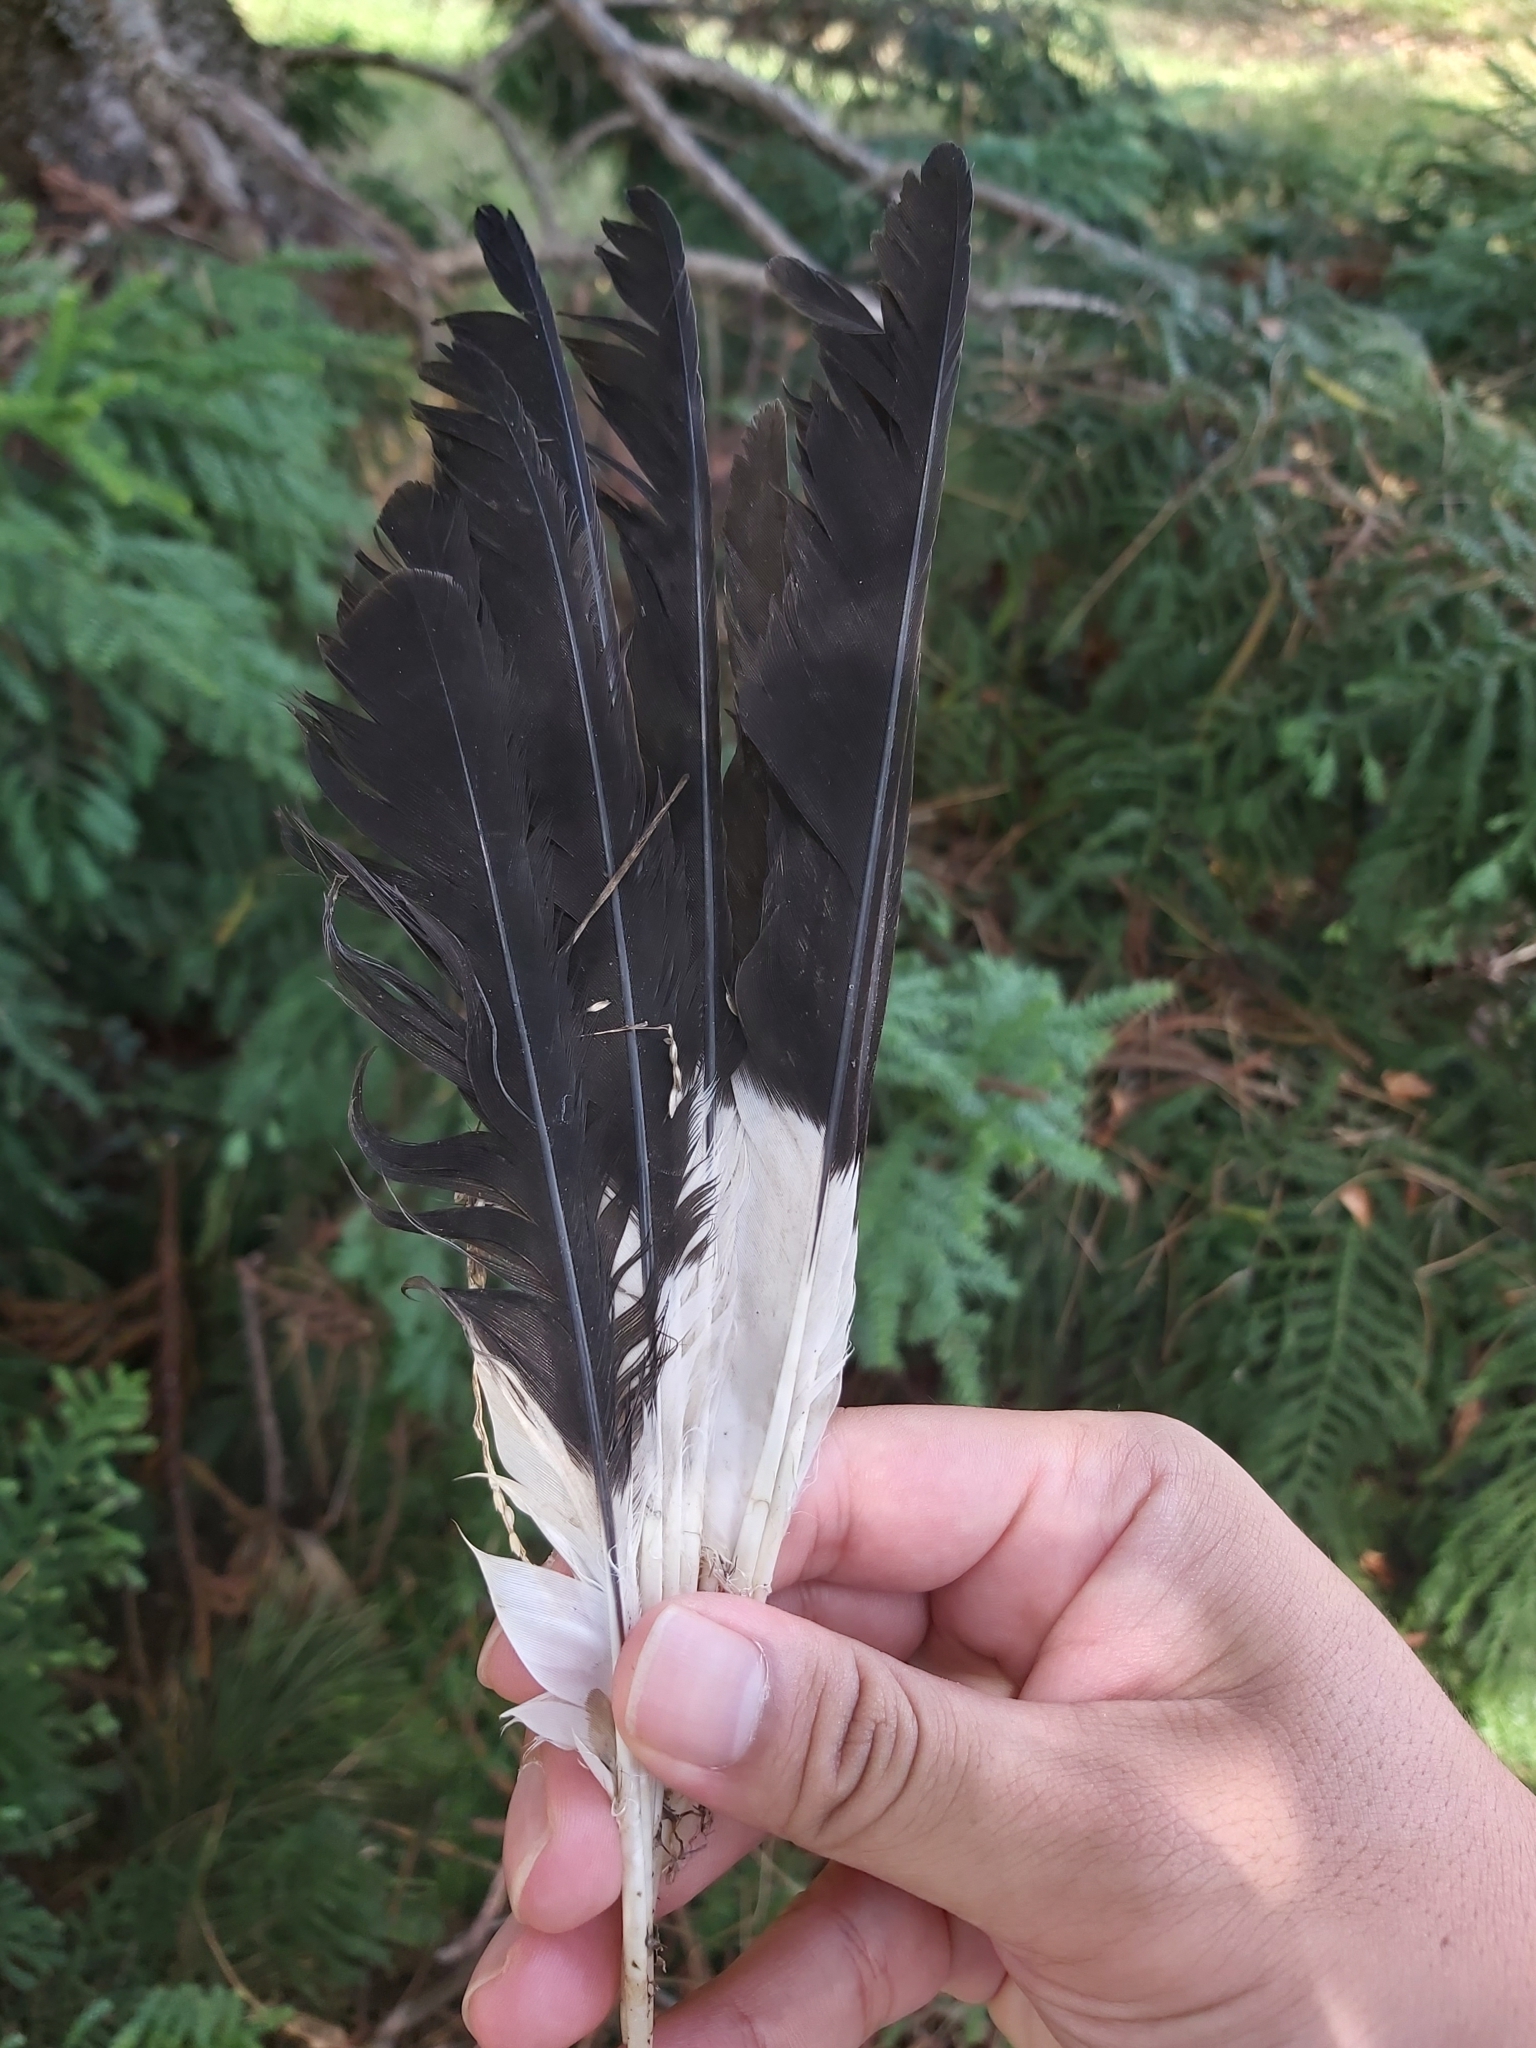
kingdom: Animalia
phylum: Chordata
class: Aves
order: Passeriformes
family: Cracticidae
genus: Strepera
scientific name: Strepera graculina
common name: Pied currawong
